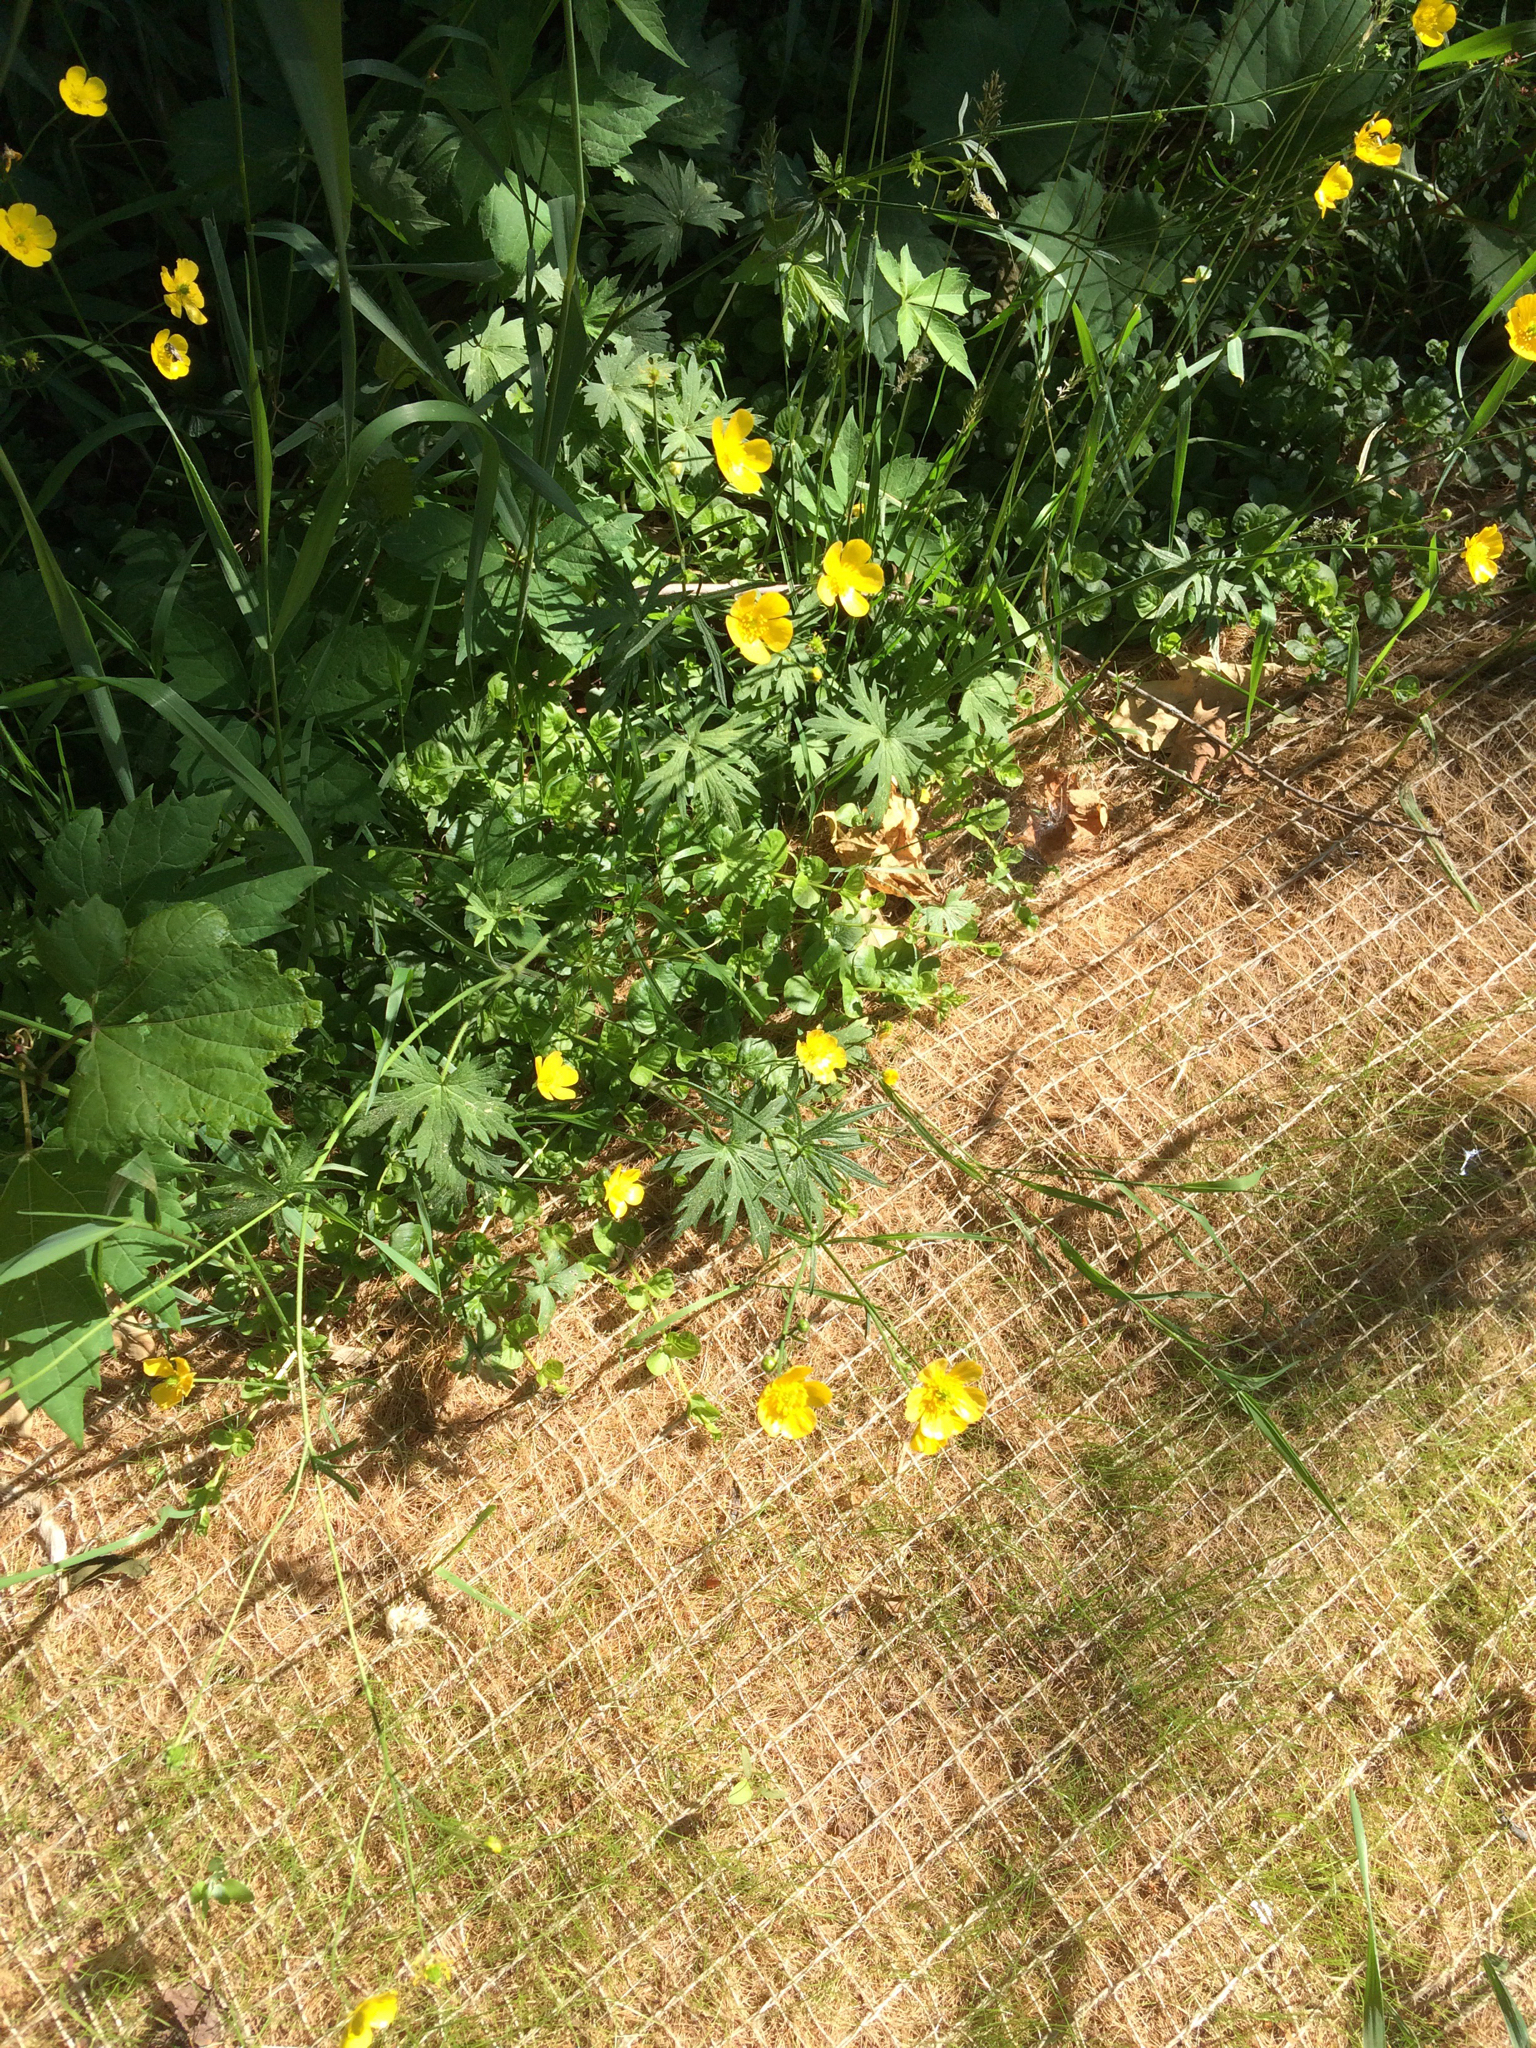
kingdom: Plantae
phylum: Tracheophyta
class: Magnoliopsida
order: Ranunculales
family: Ranunculaceae
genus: Ranunculus
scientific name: Ranunculus acris
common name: Meadow buttercup
